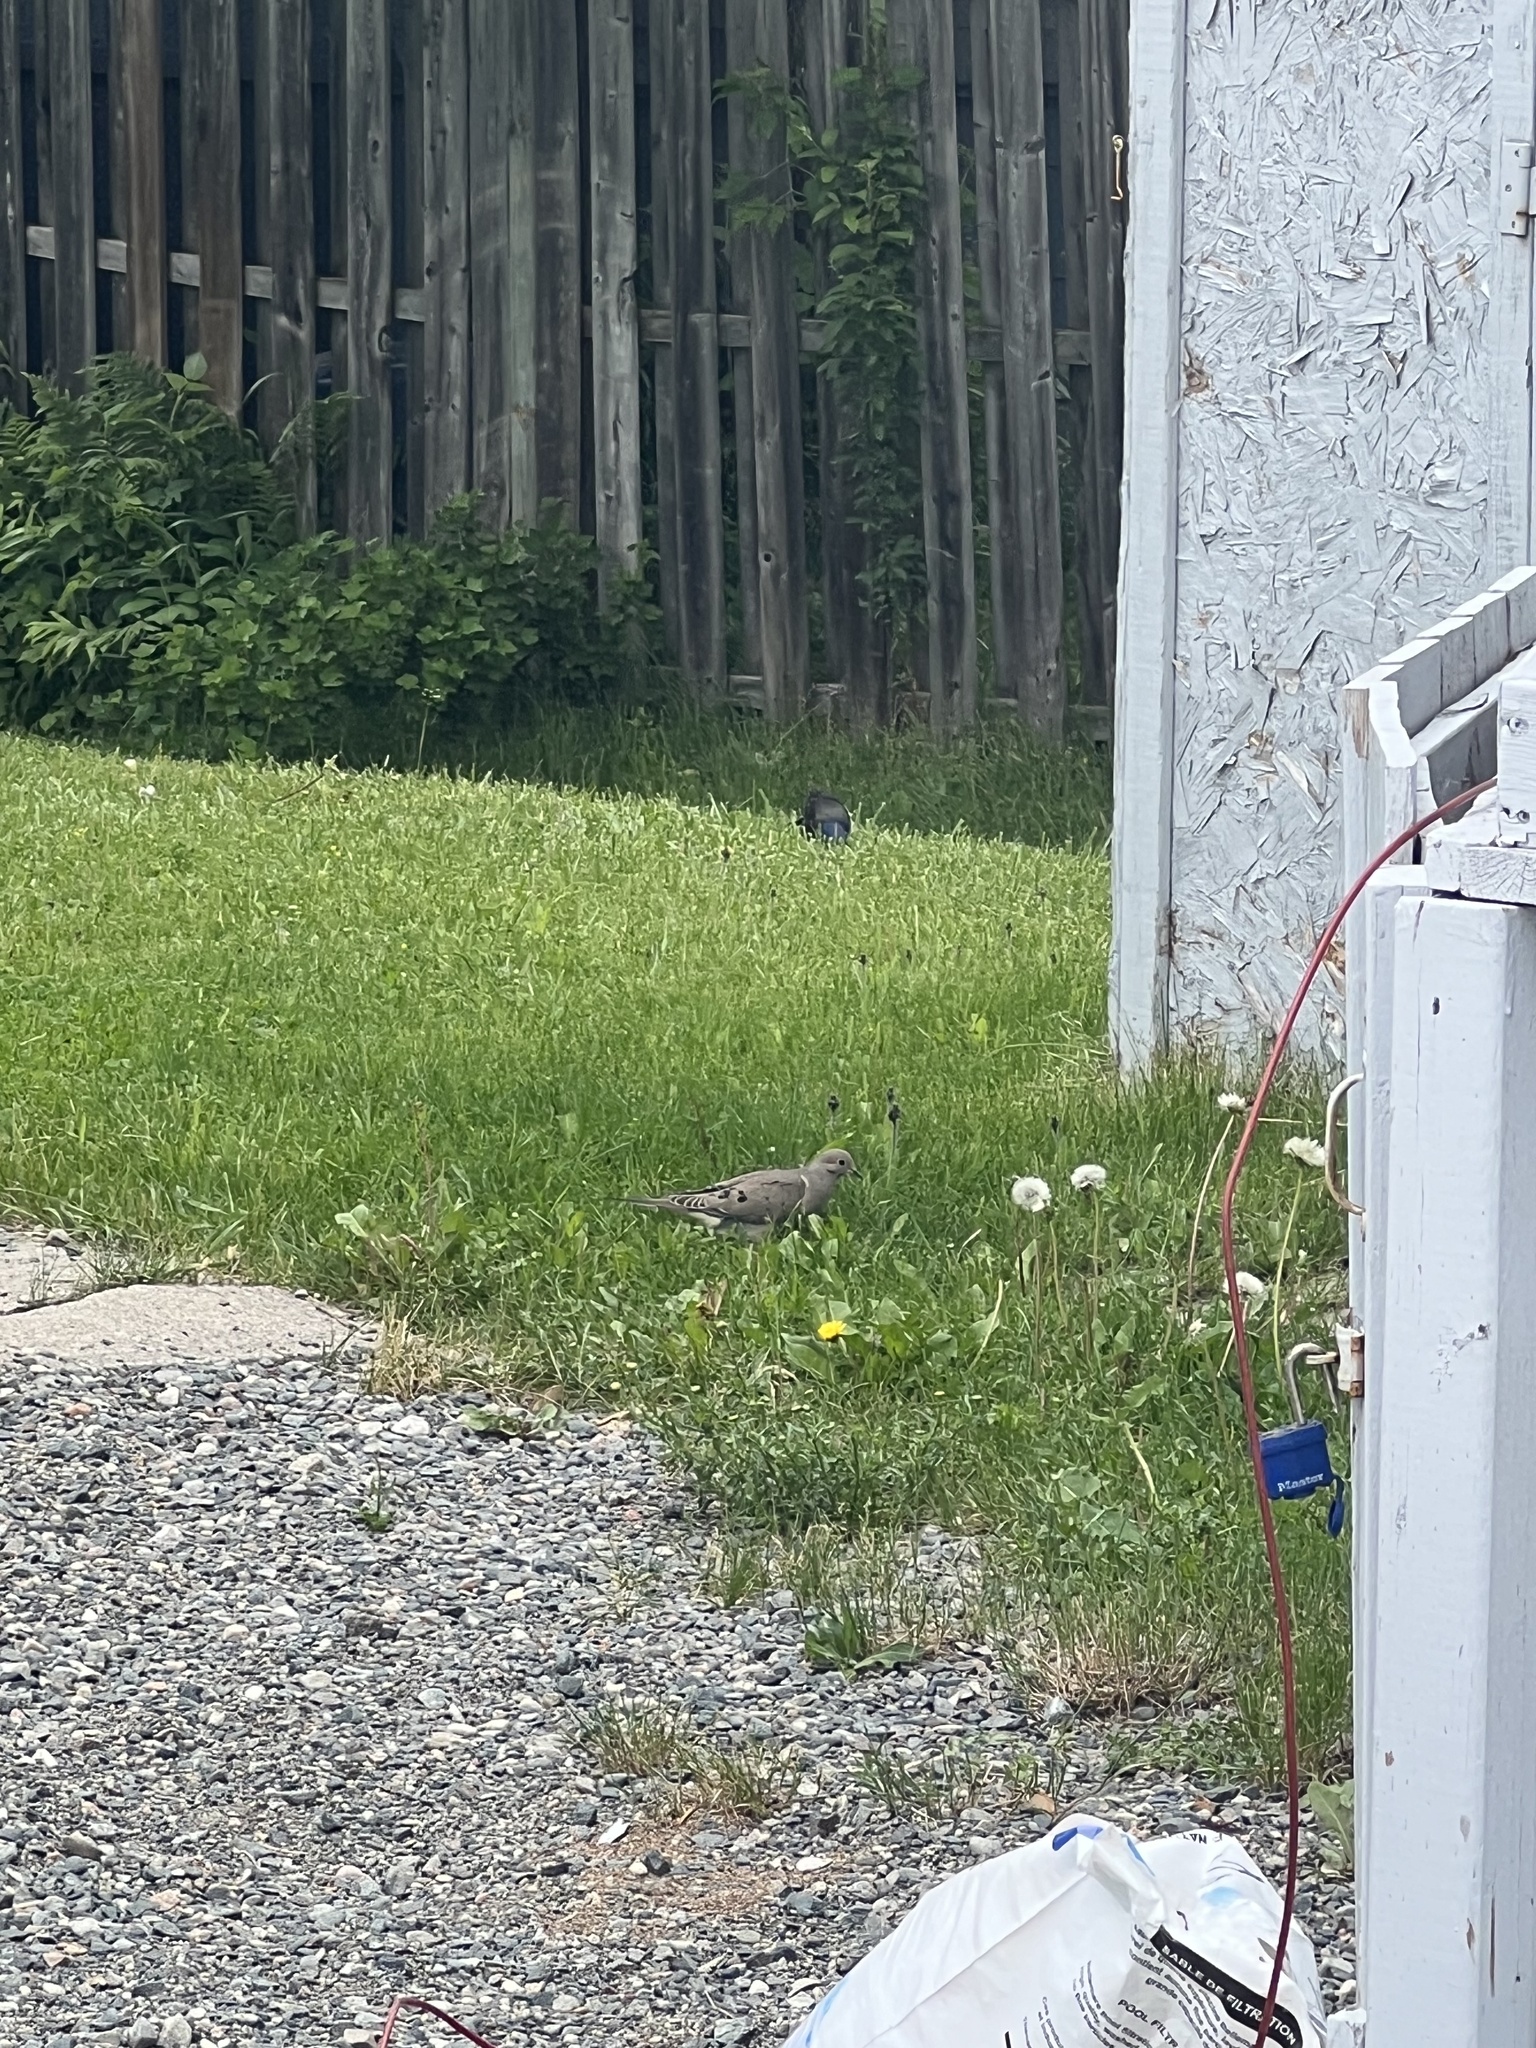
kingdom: Animalia
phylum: Chordata
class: Aves
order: Columbiformes
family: Columbidae
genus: Zenaida
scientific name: Zenaida macroura
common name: Mourning dove
